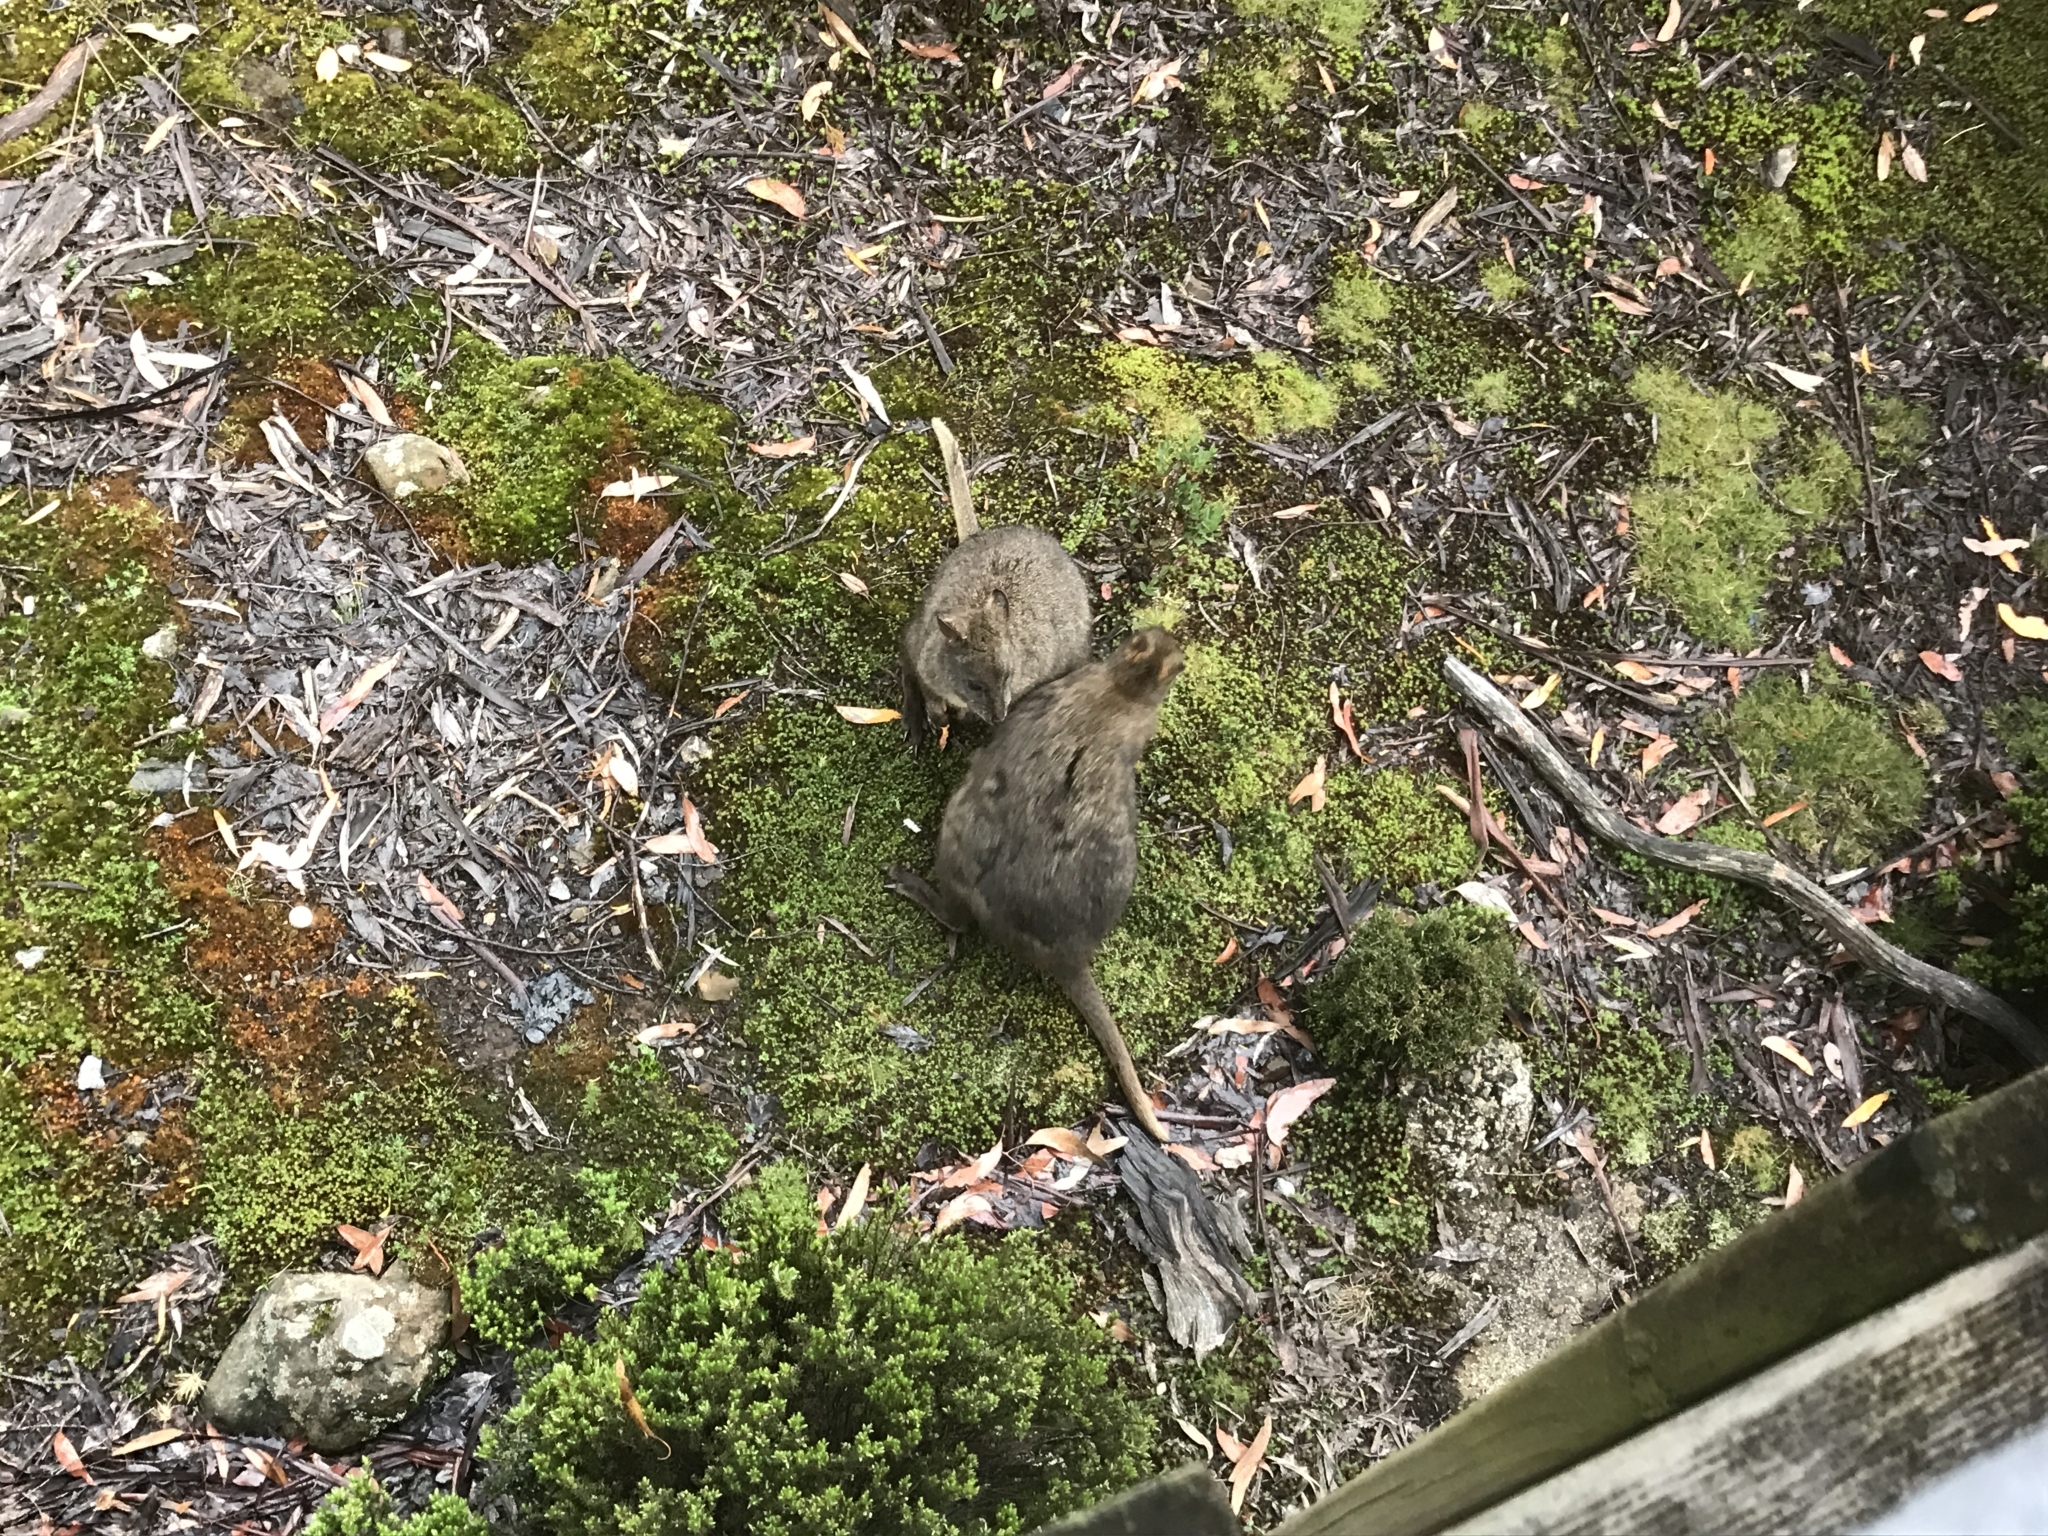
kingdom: Animalia
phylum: Chordata
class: Mammalia
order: Diprotodontia
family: Macropodidae
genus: Thylogale
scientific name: Thylogale billardierii
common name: Tasmanian pademelon
